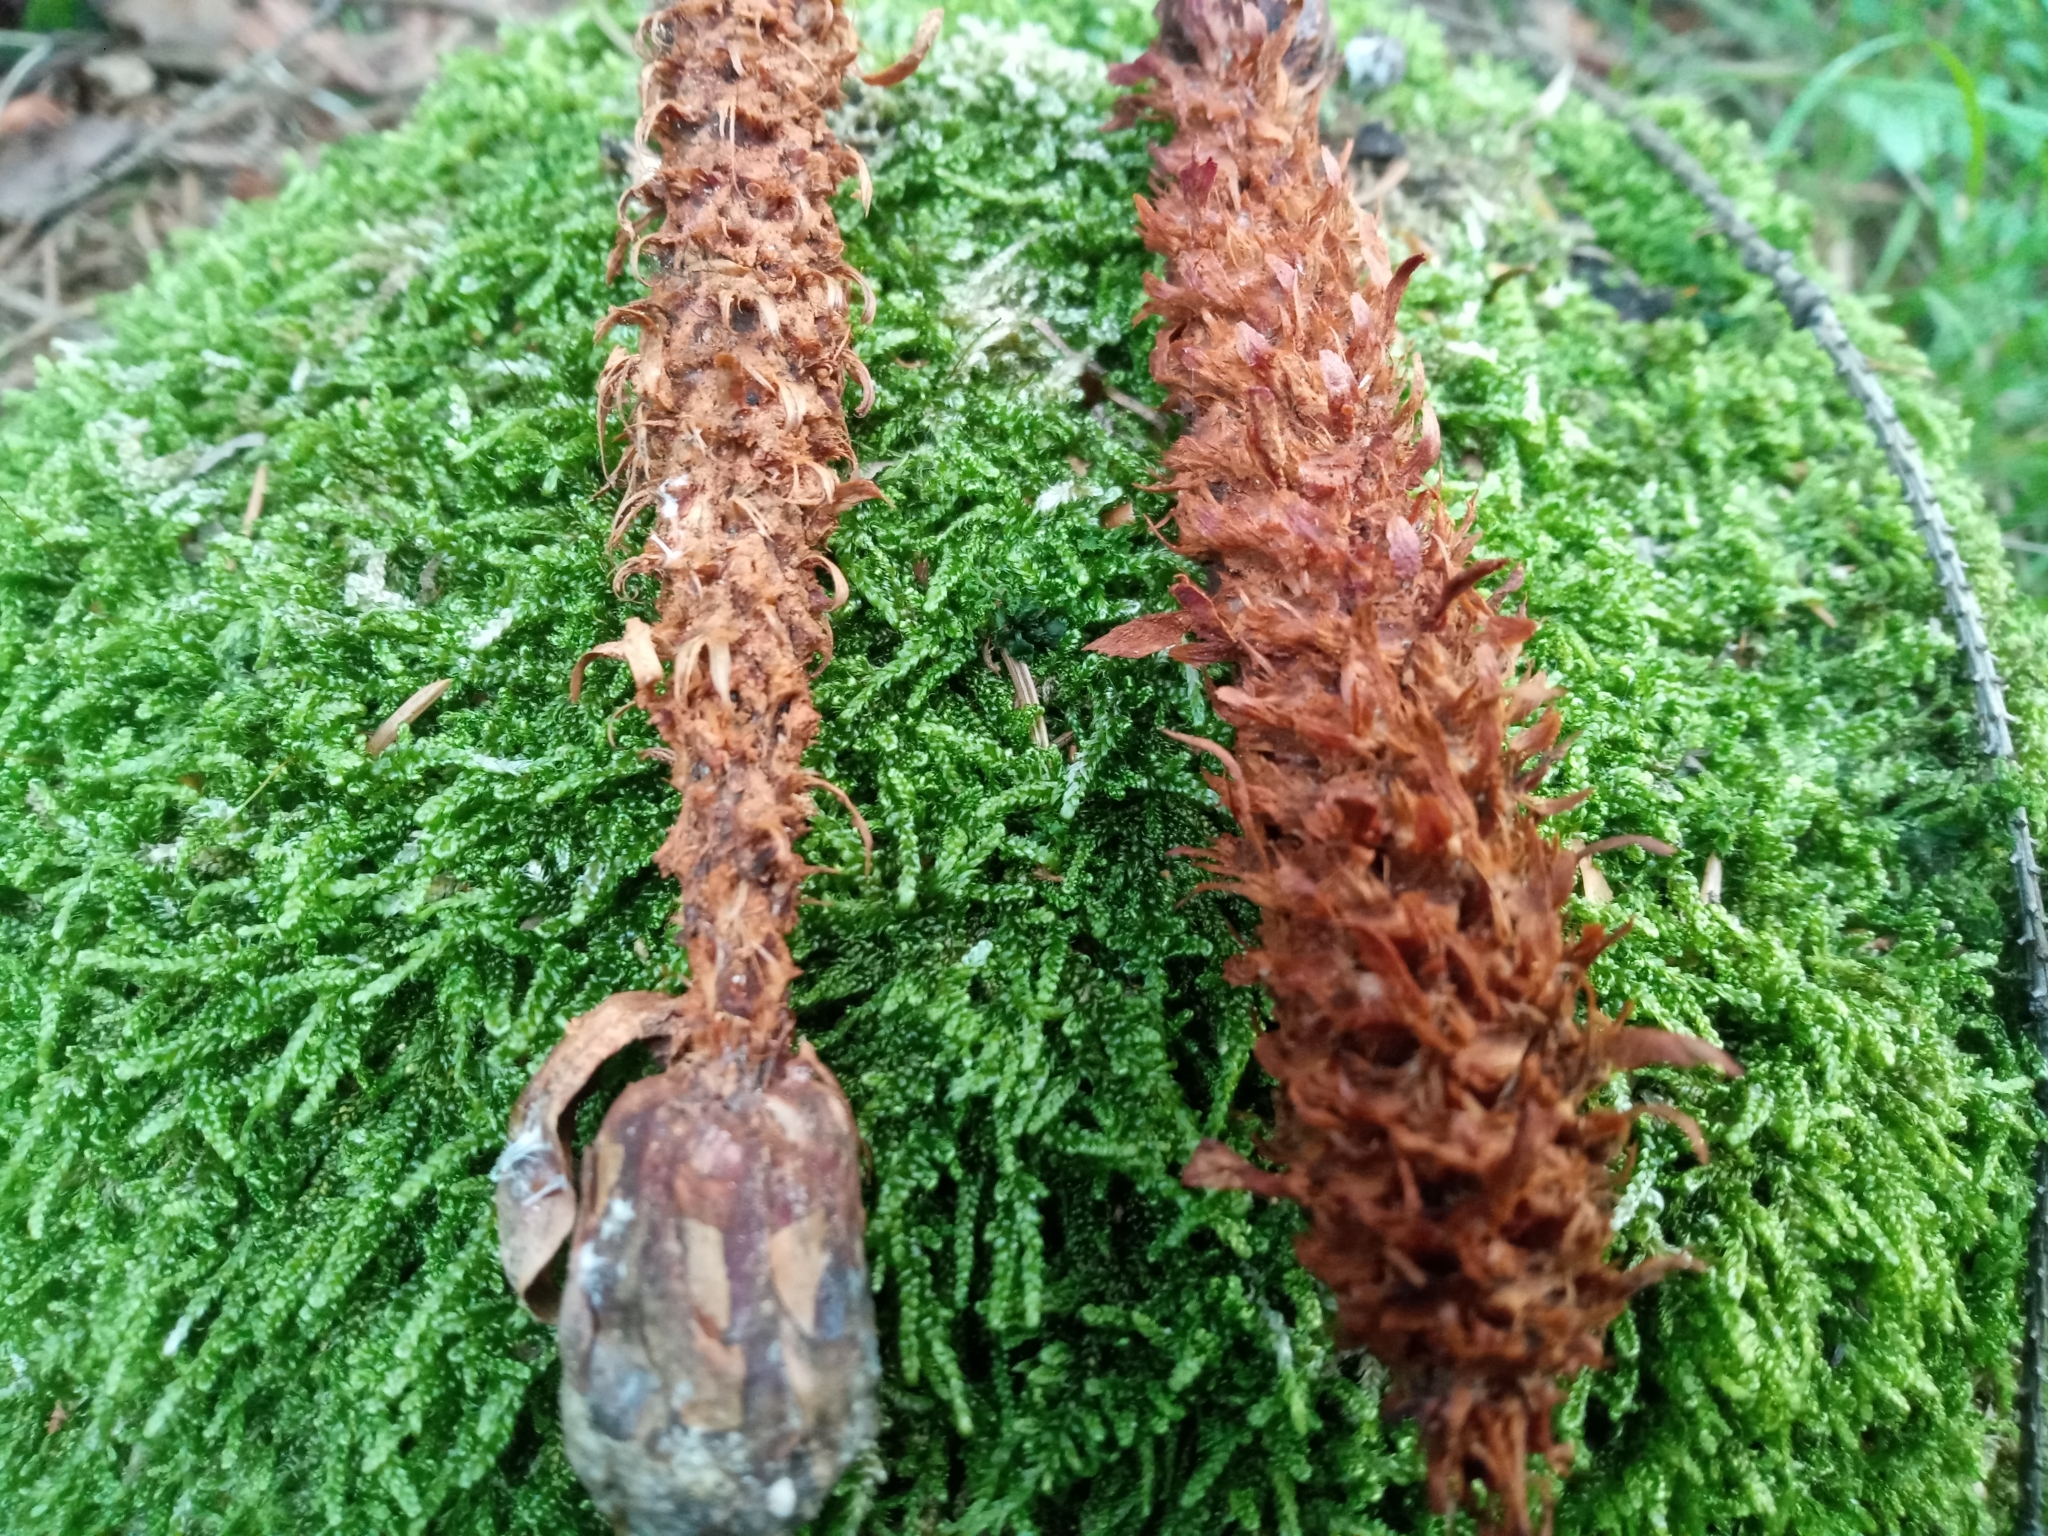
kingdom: Animalia
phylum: Chordata
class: Mammalia
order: Rodentia
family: Sciuridae
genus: Sciurus
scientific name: Sciurus vulgaris
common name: Eurasian red squirrel
